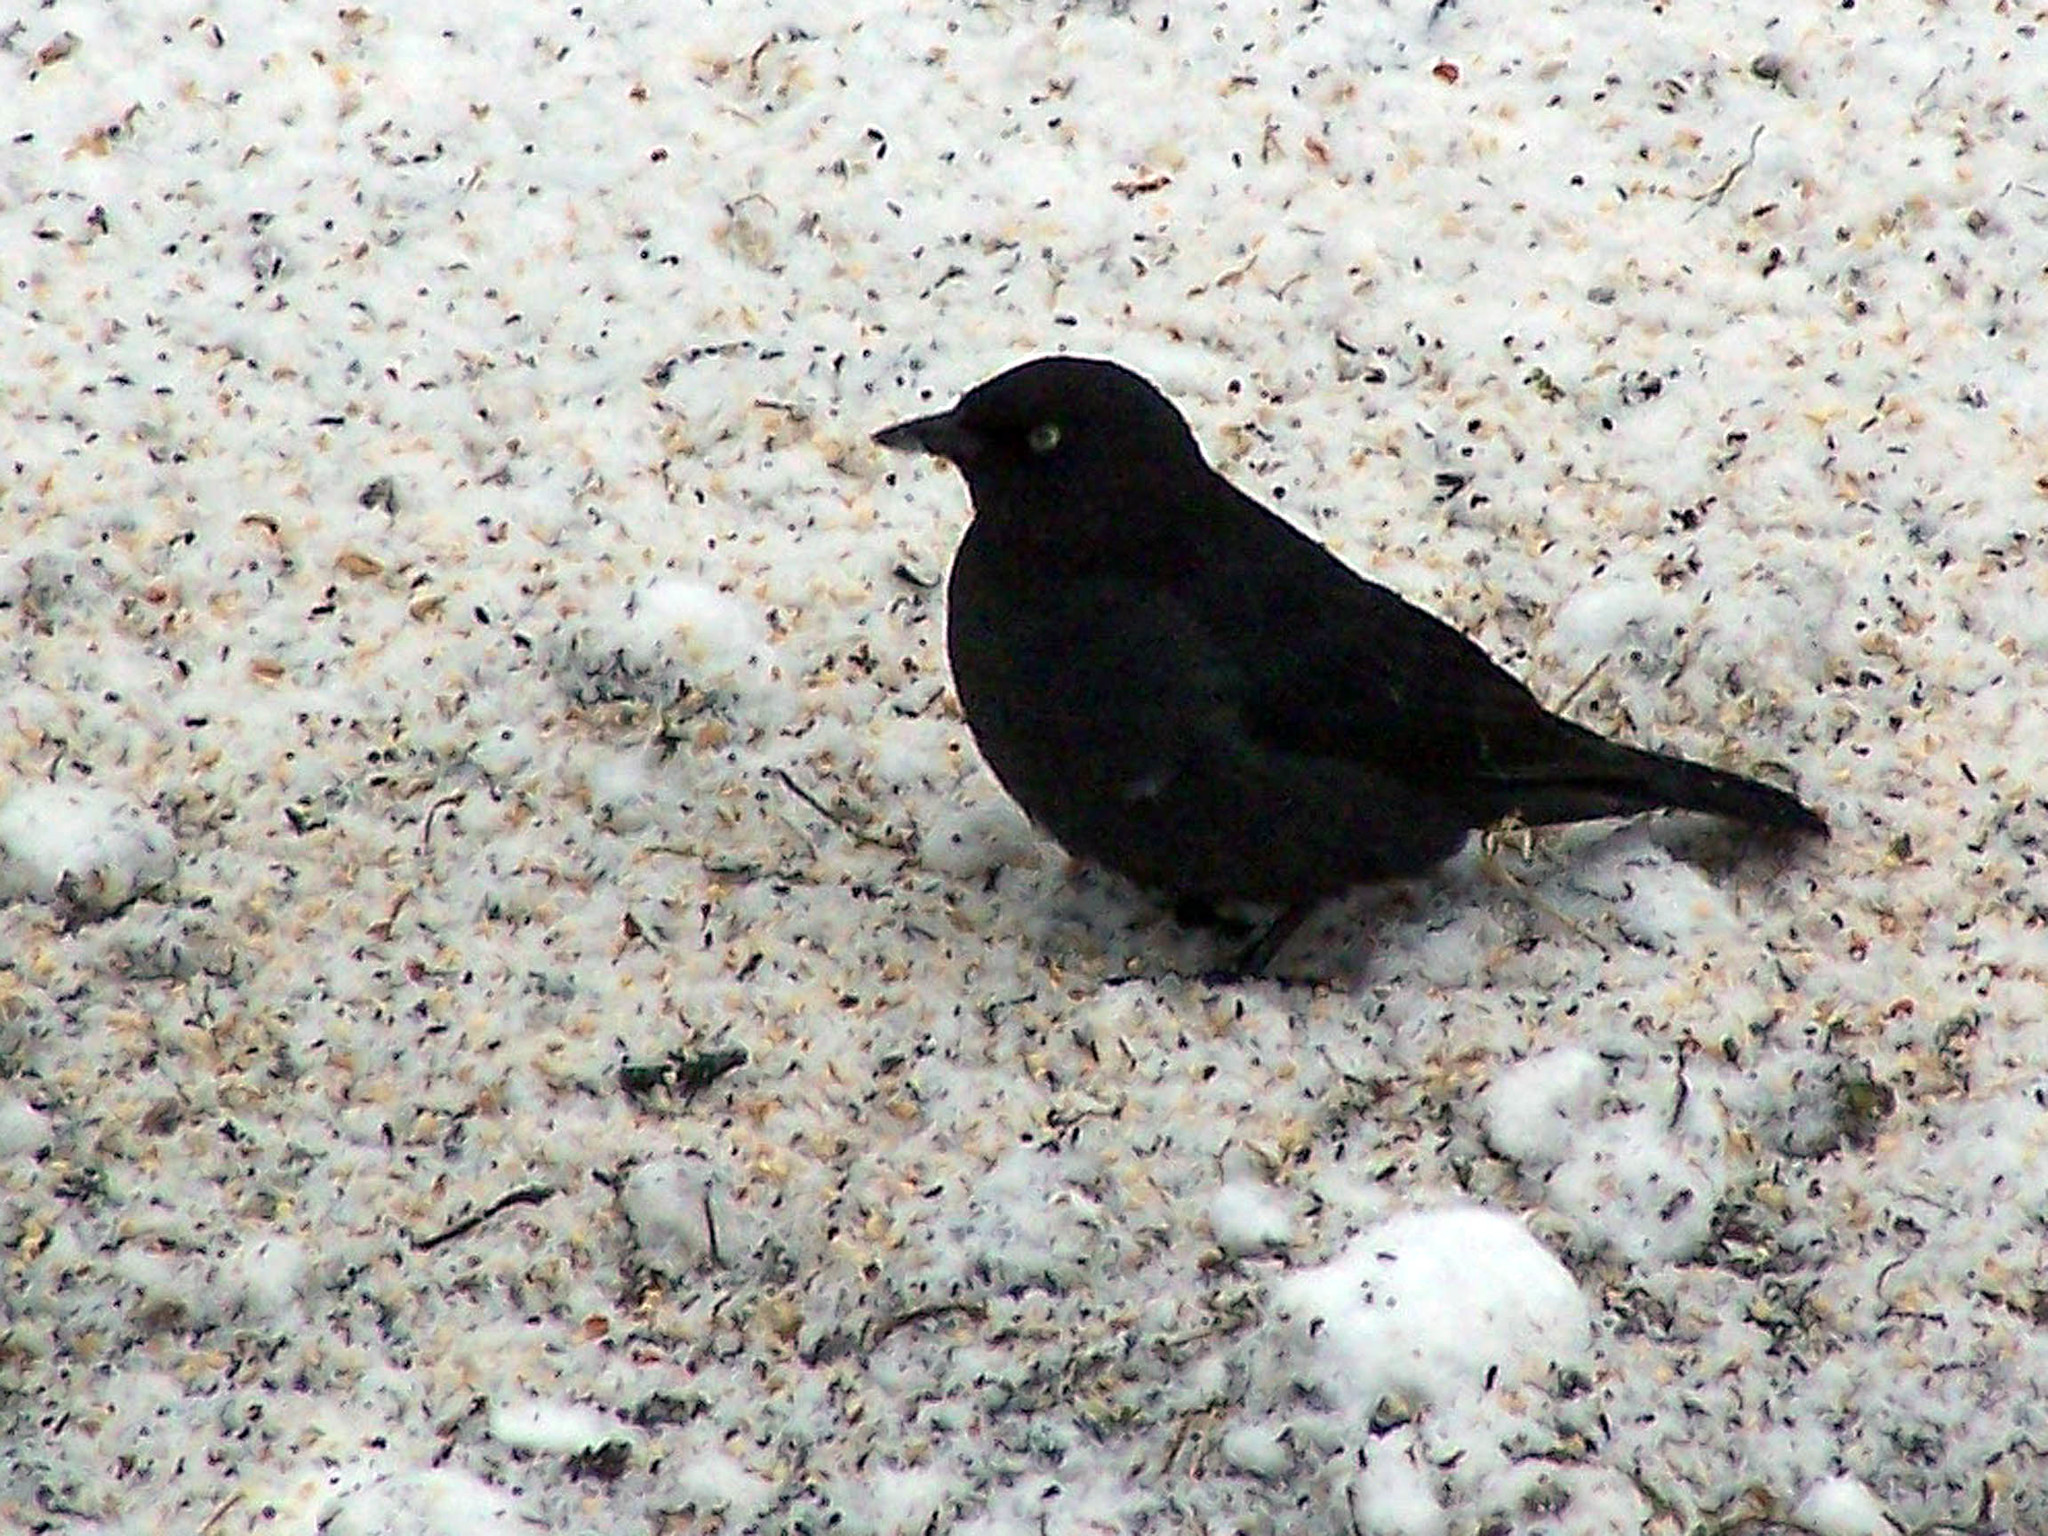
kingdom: Animalia
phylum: Chordata
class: Aves
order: Passeriformes
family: Icteridae
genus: Euphagus
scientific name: Euphagus carolinus
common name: Rusty blackbird
